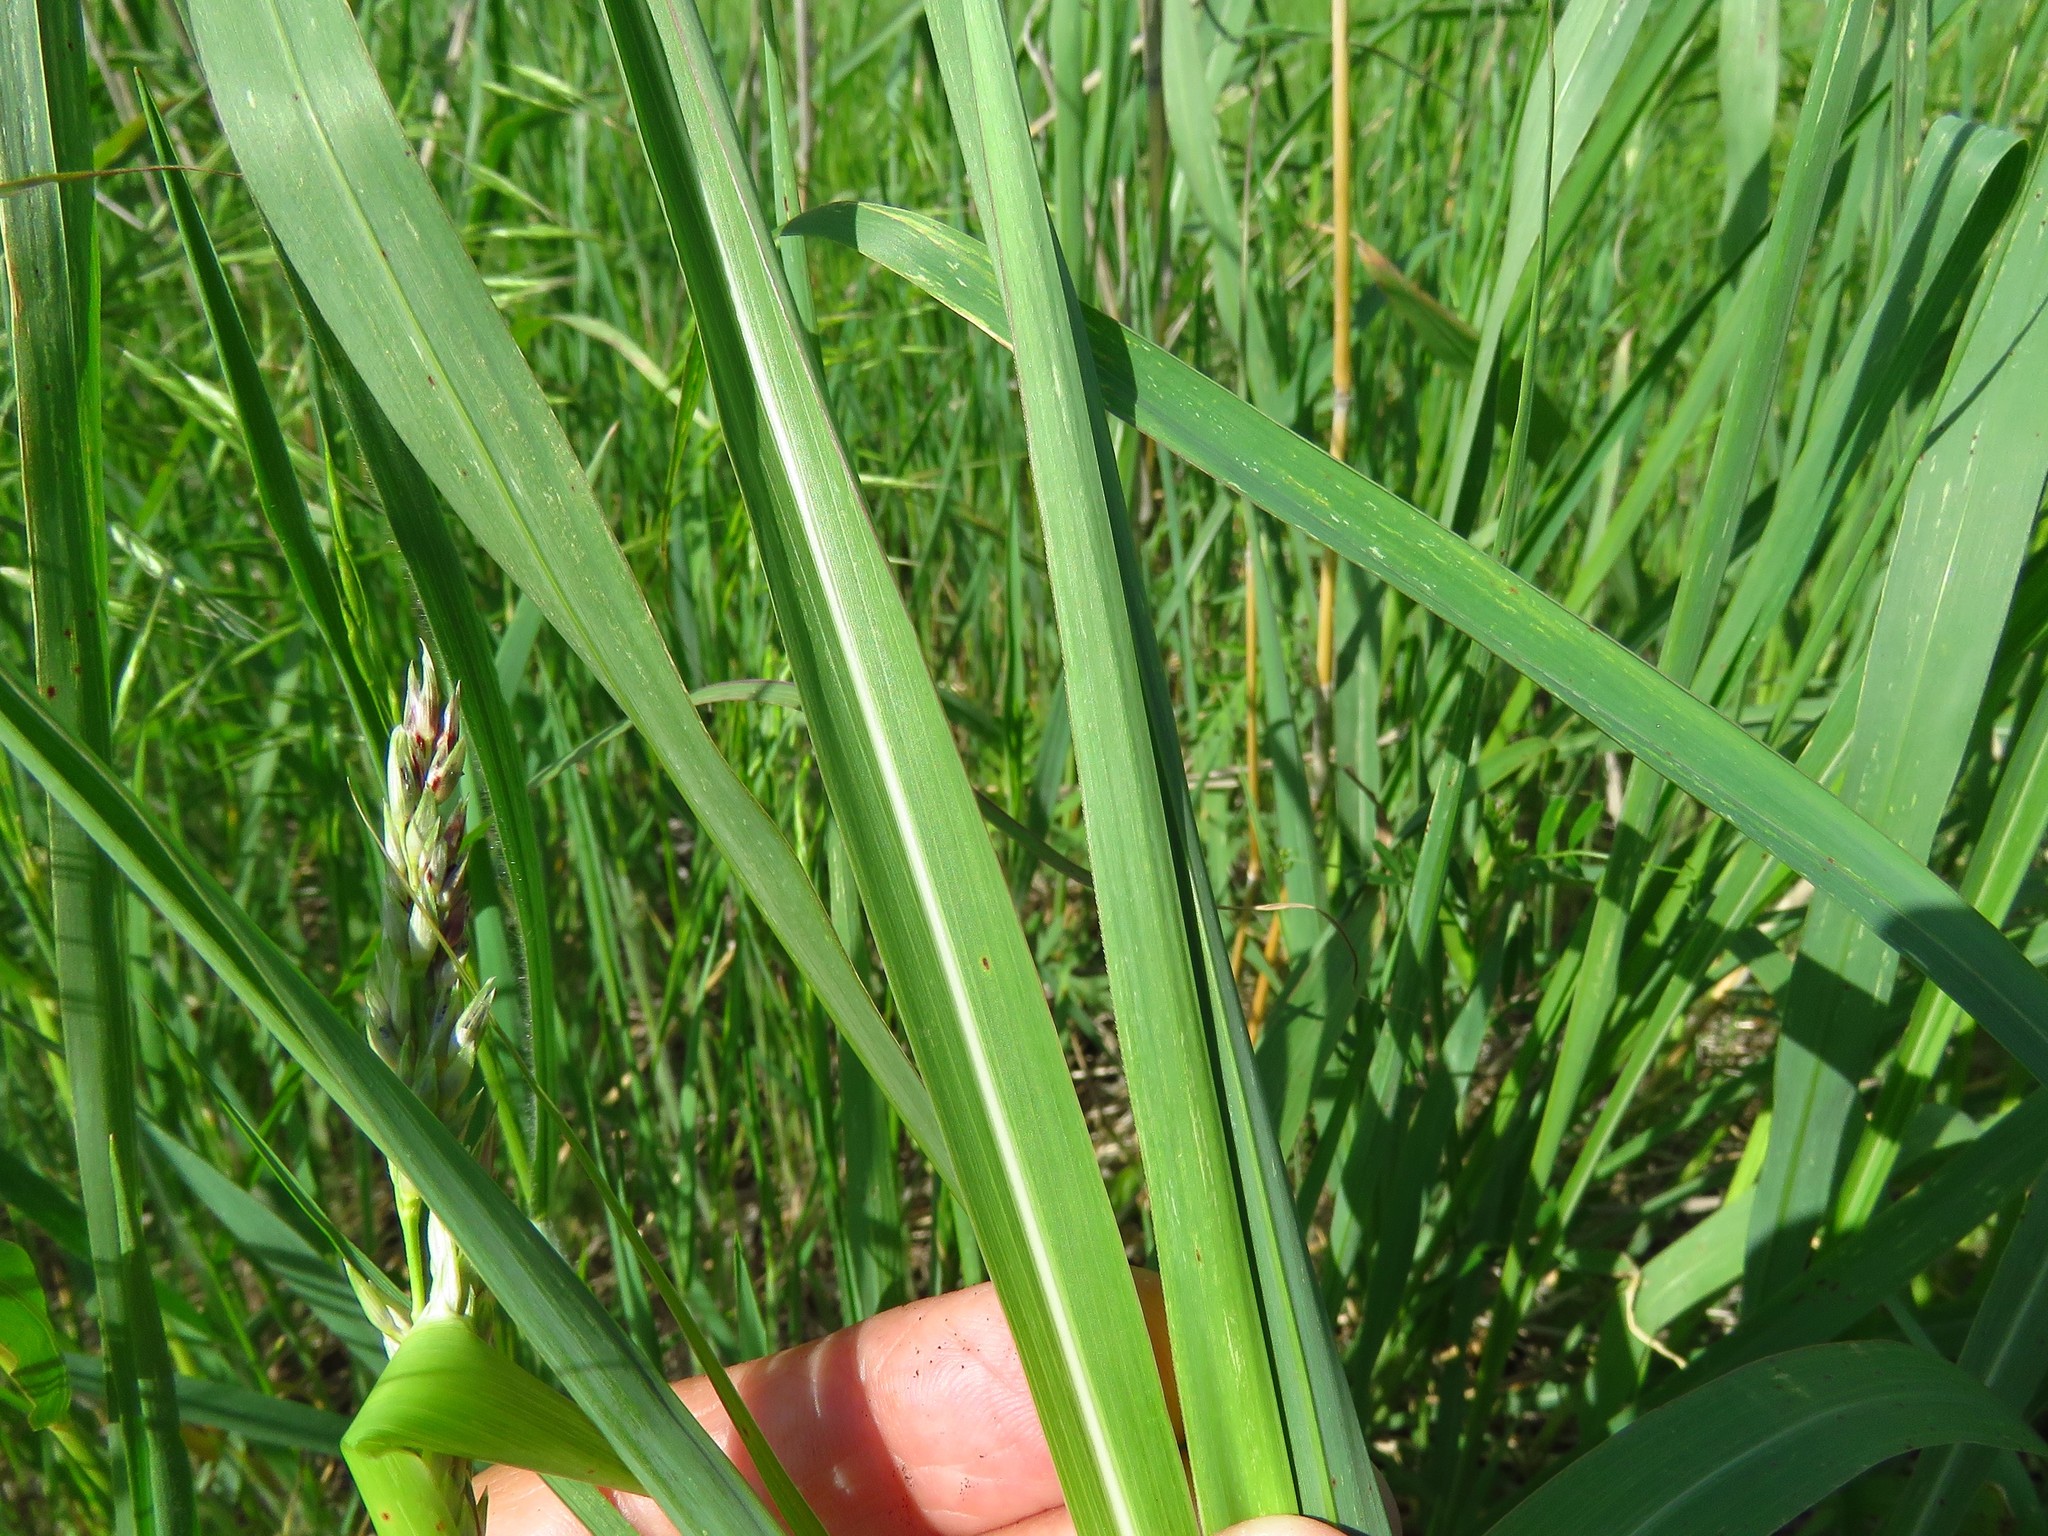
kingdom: Plantae
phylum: Tracheophyta
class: Liliopsida
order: Poales
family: Poaceae
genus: Sorghum
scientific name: Sorghum halepense
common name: Johnson-grass
